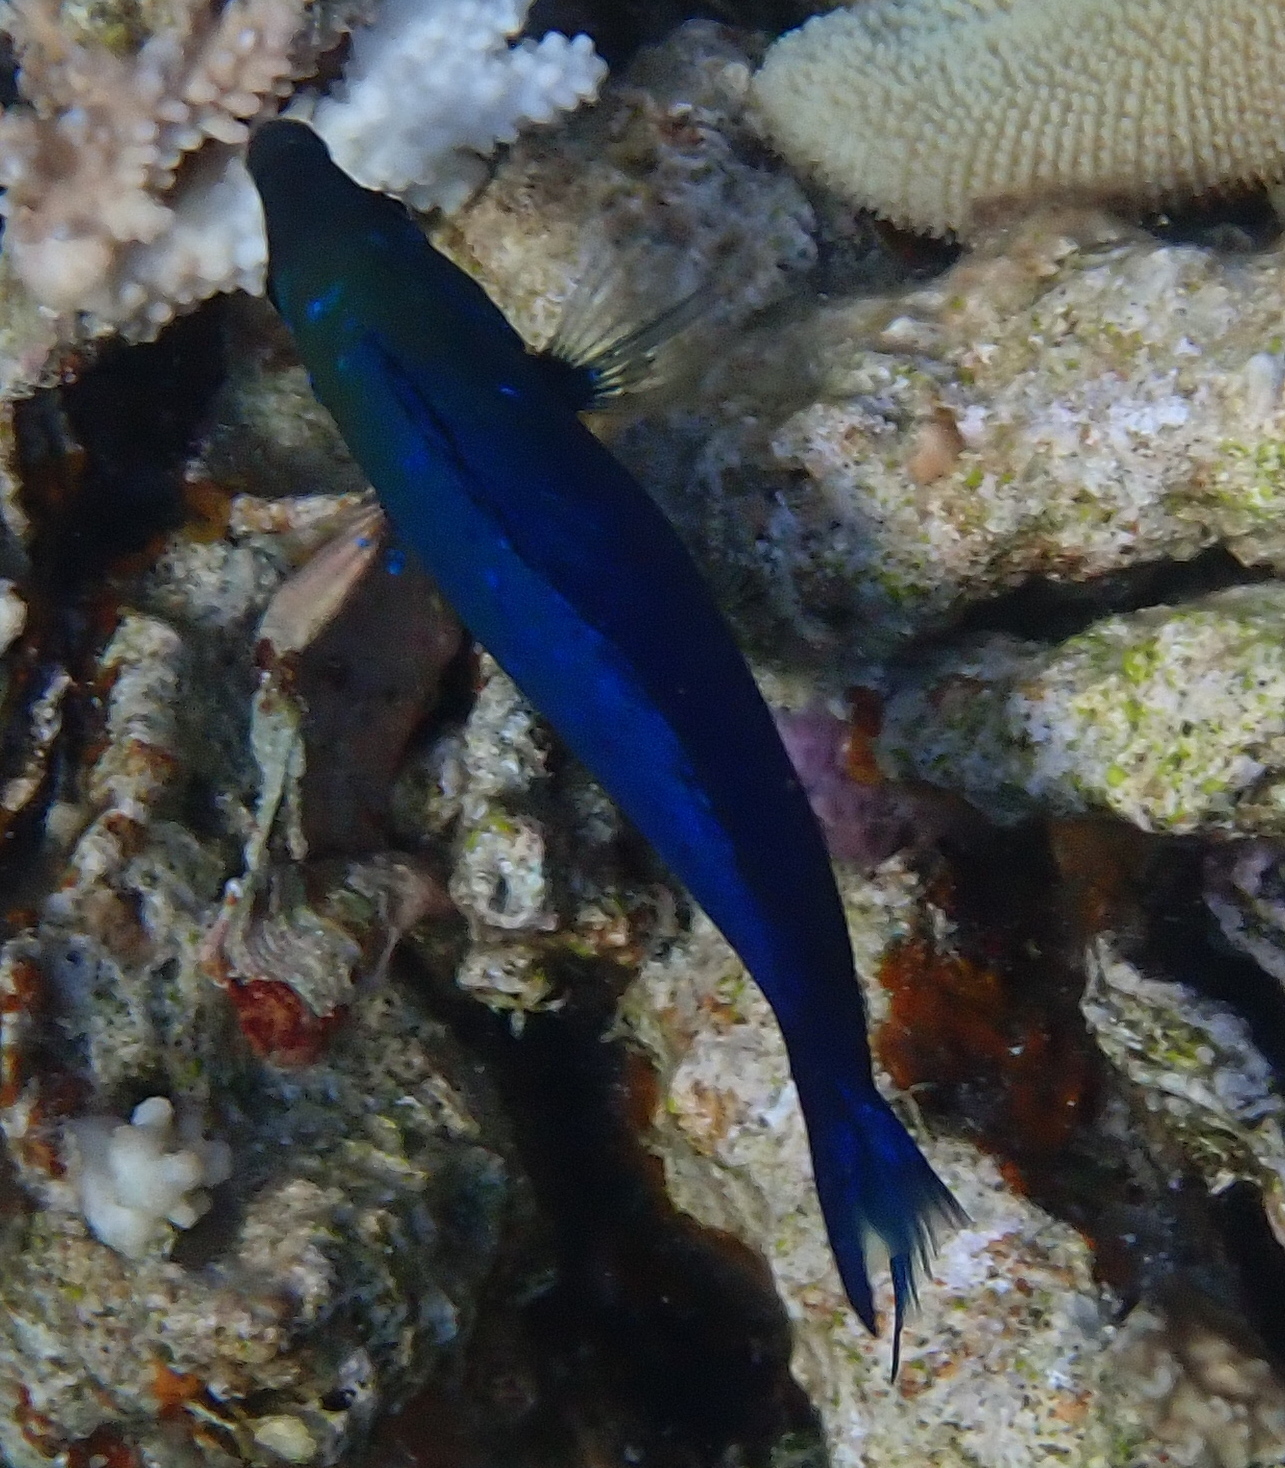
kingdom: Animalia
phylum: Chordata
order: Perciformes
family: Labridae
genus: Larabicus
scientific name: Larabicus quadrilineatus
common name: Fourline wrasse
